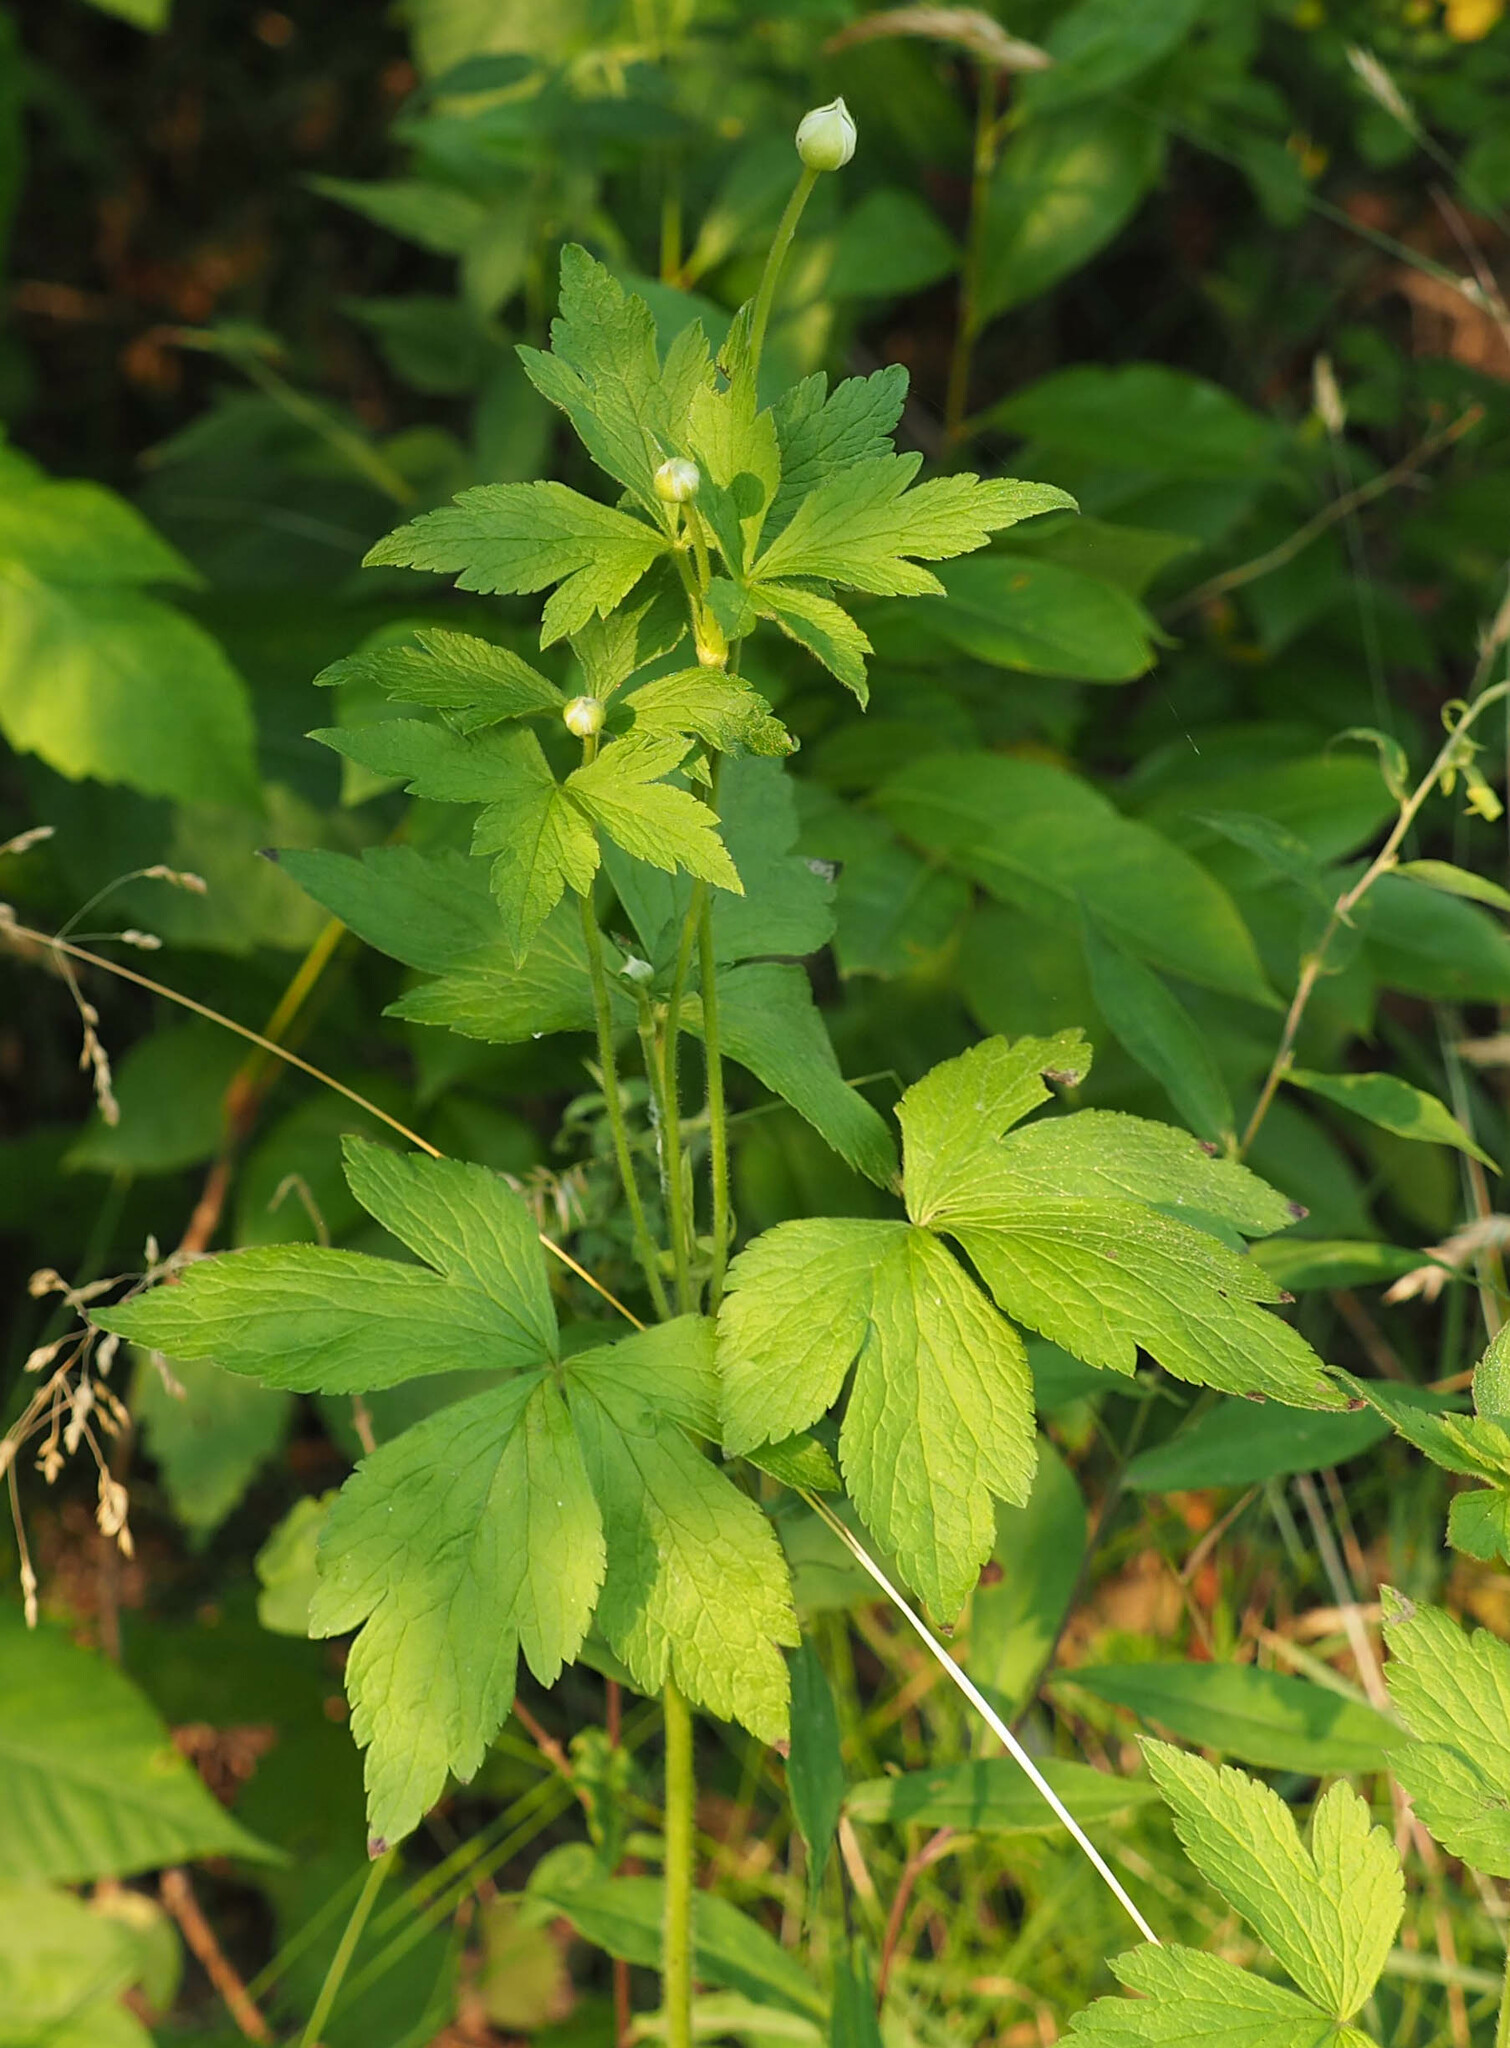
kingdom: Plantae
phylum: Tracheophyta
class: Magnoliopsida
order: Ranunculales
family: Ranunculaceae
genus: Anemone
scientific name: Anemone virginiana
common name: Tall anemone
